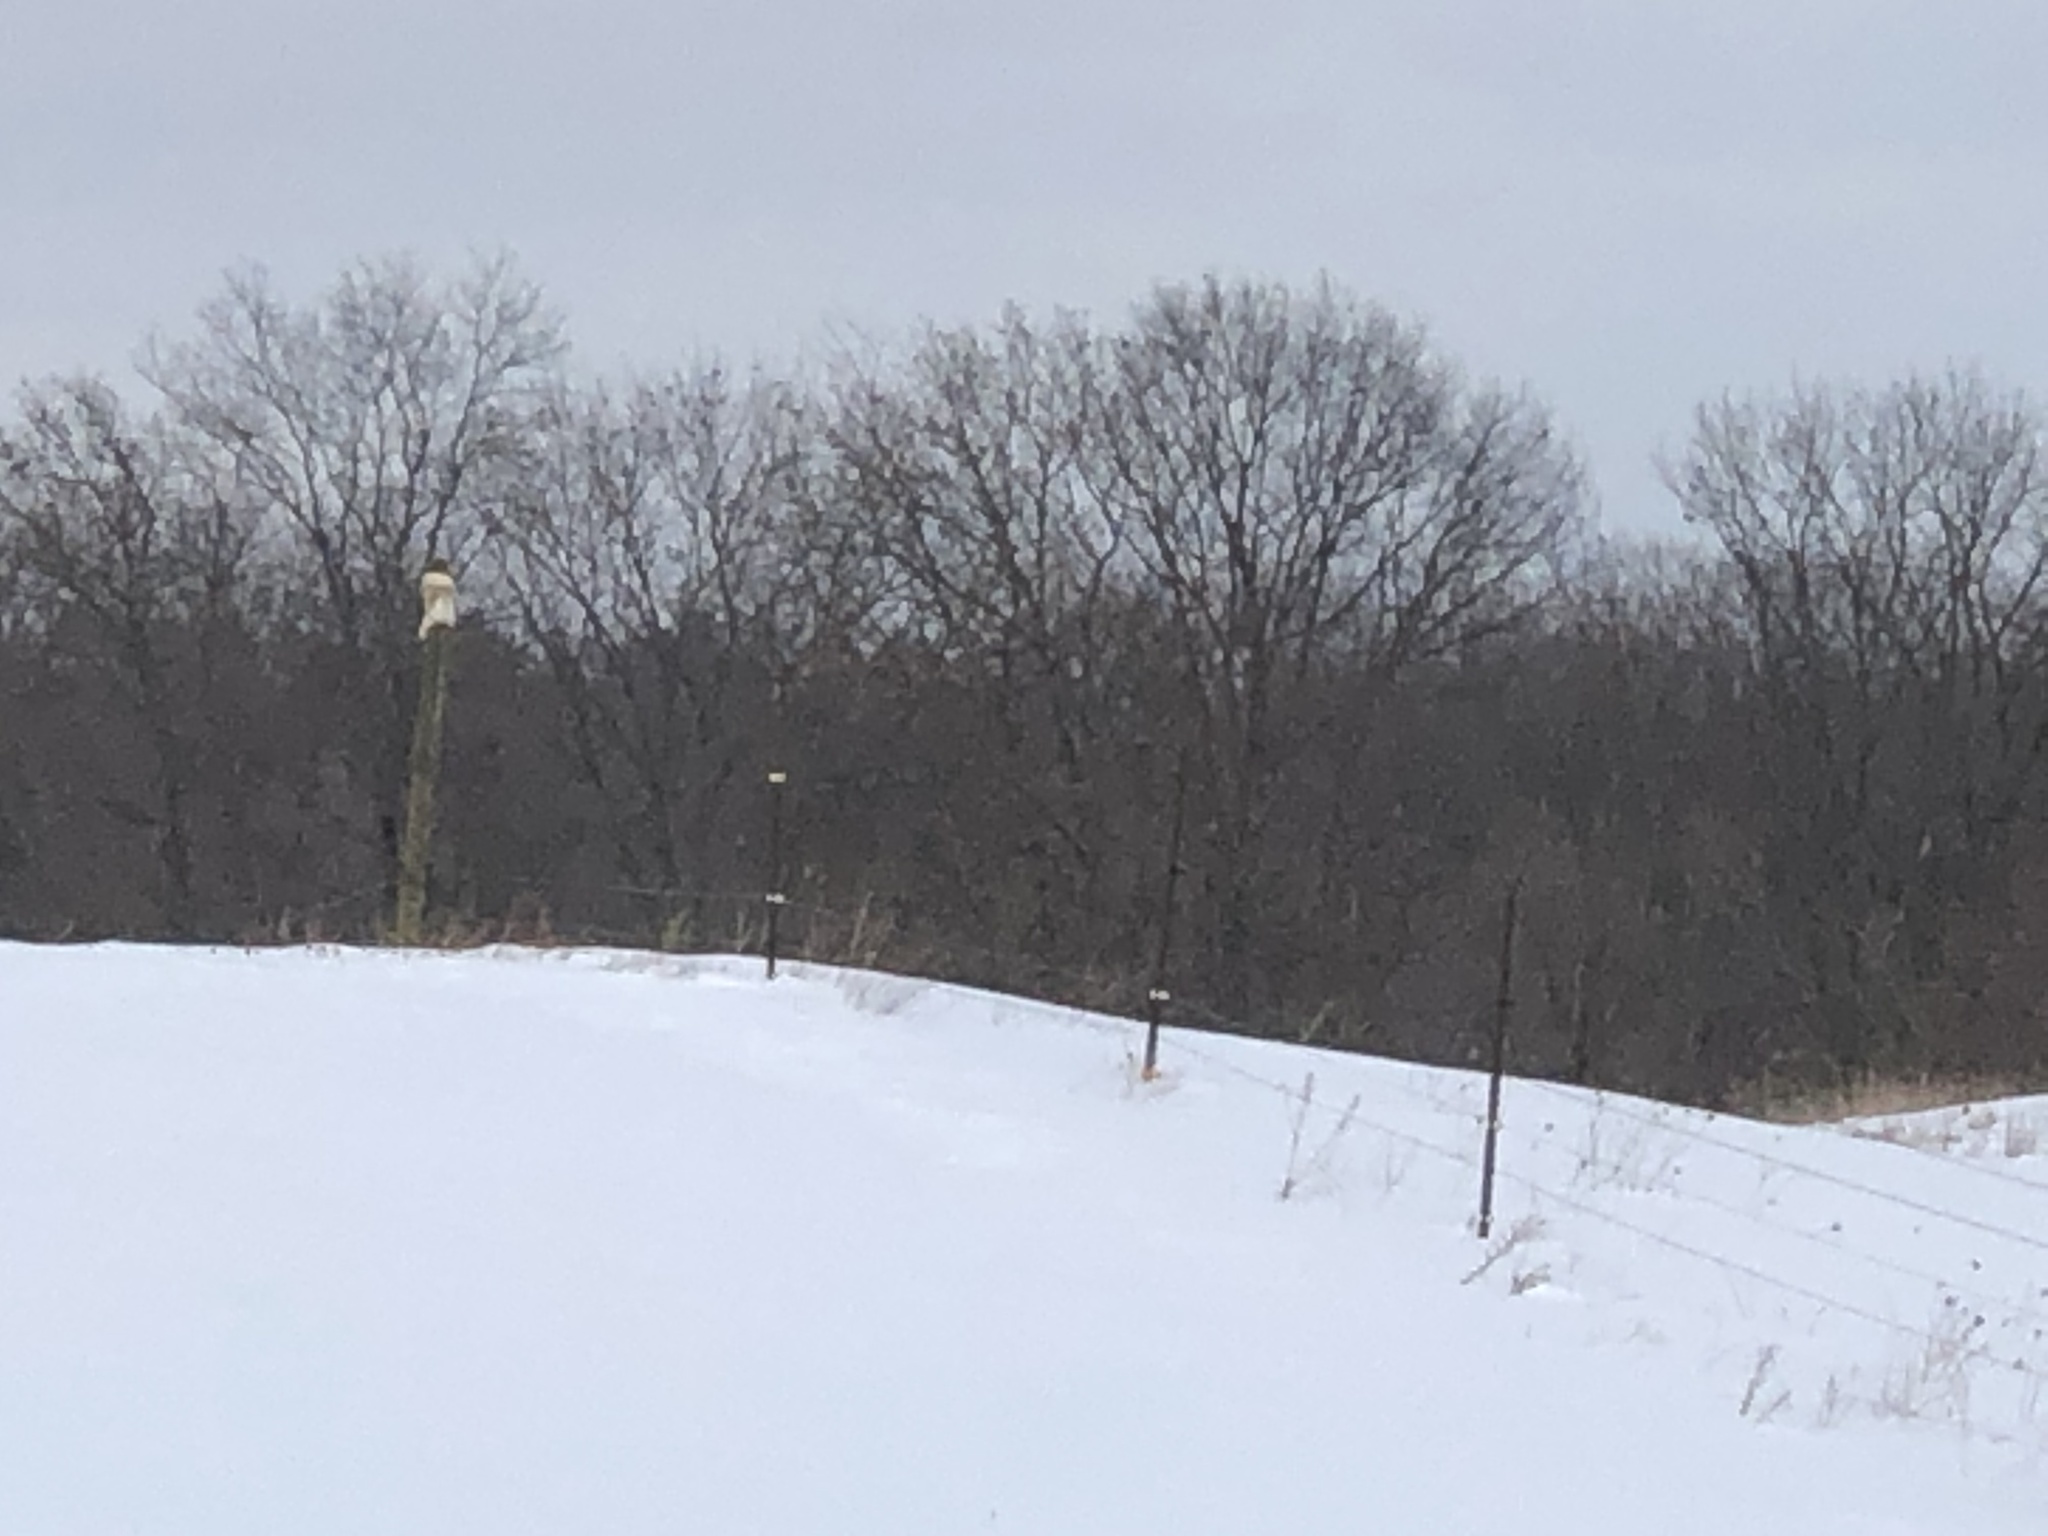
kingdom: Animalia
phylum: Chordata
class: Aves
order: Accipitriformes
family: Accipitridae
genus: Buteo
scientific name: Buteo jamaicensis
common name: Red-tailed hawk
